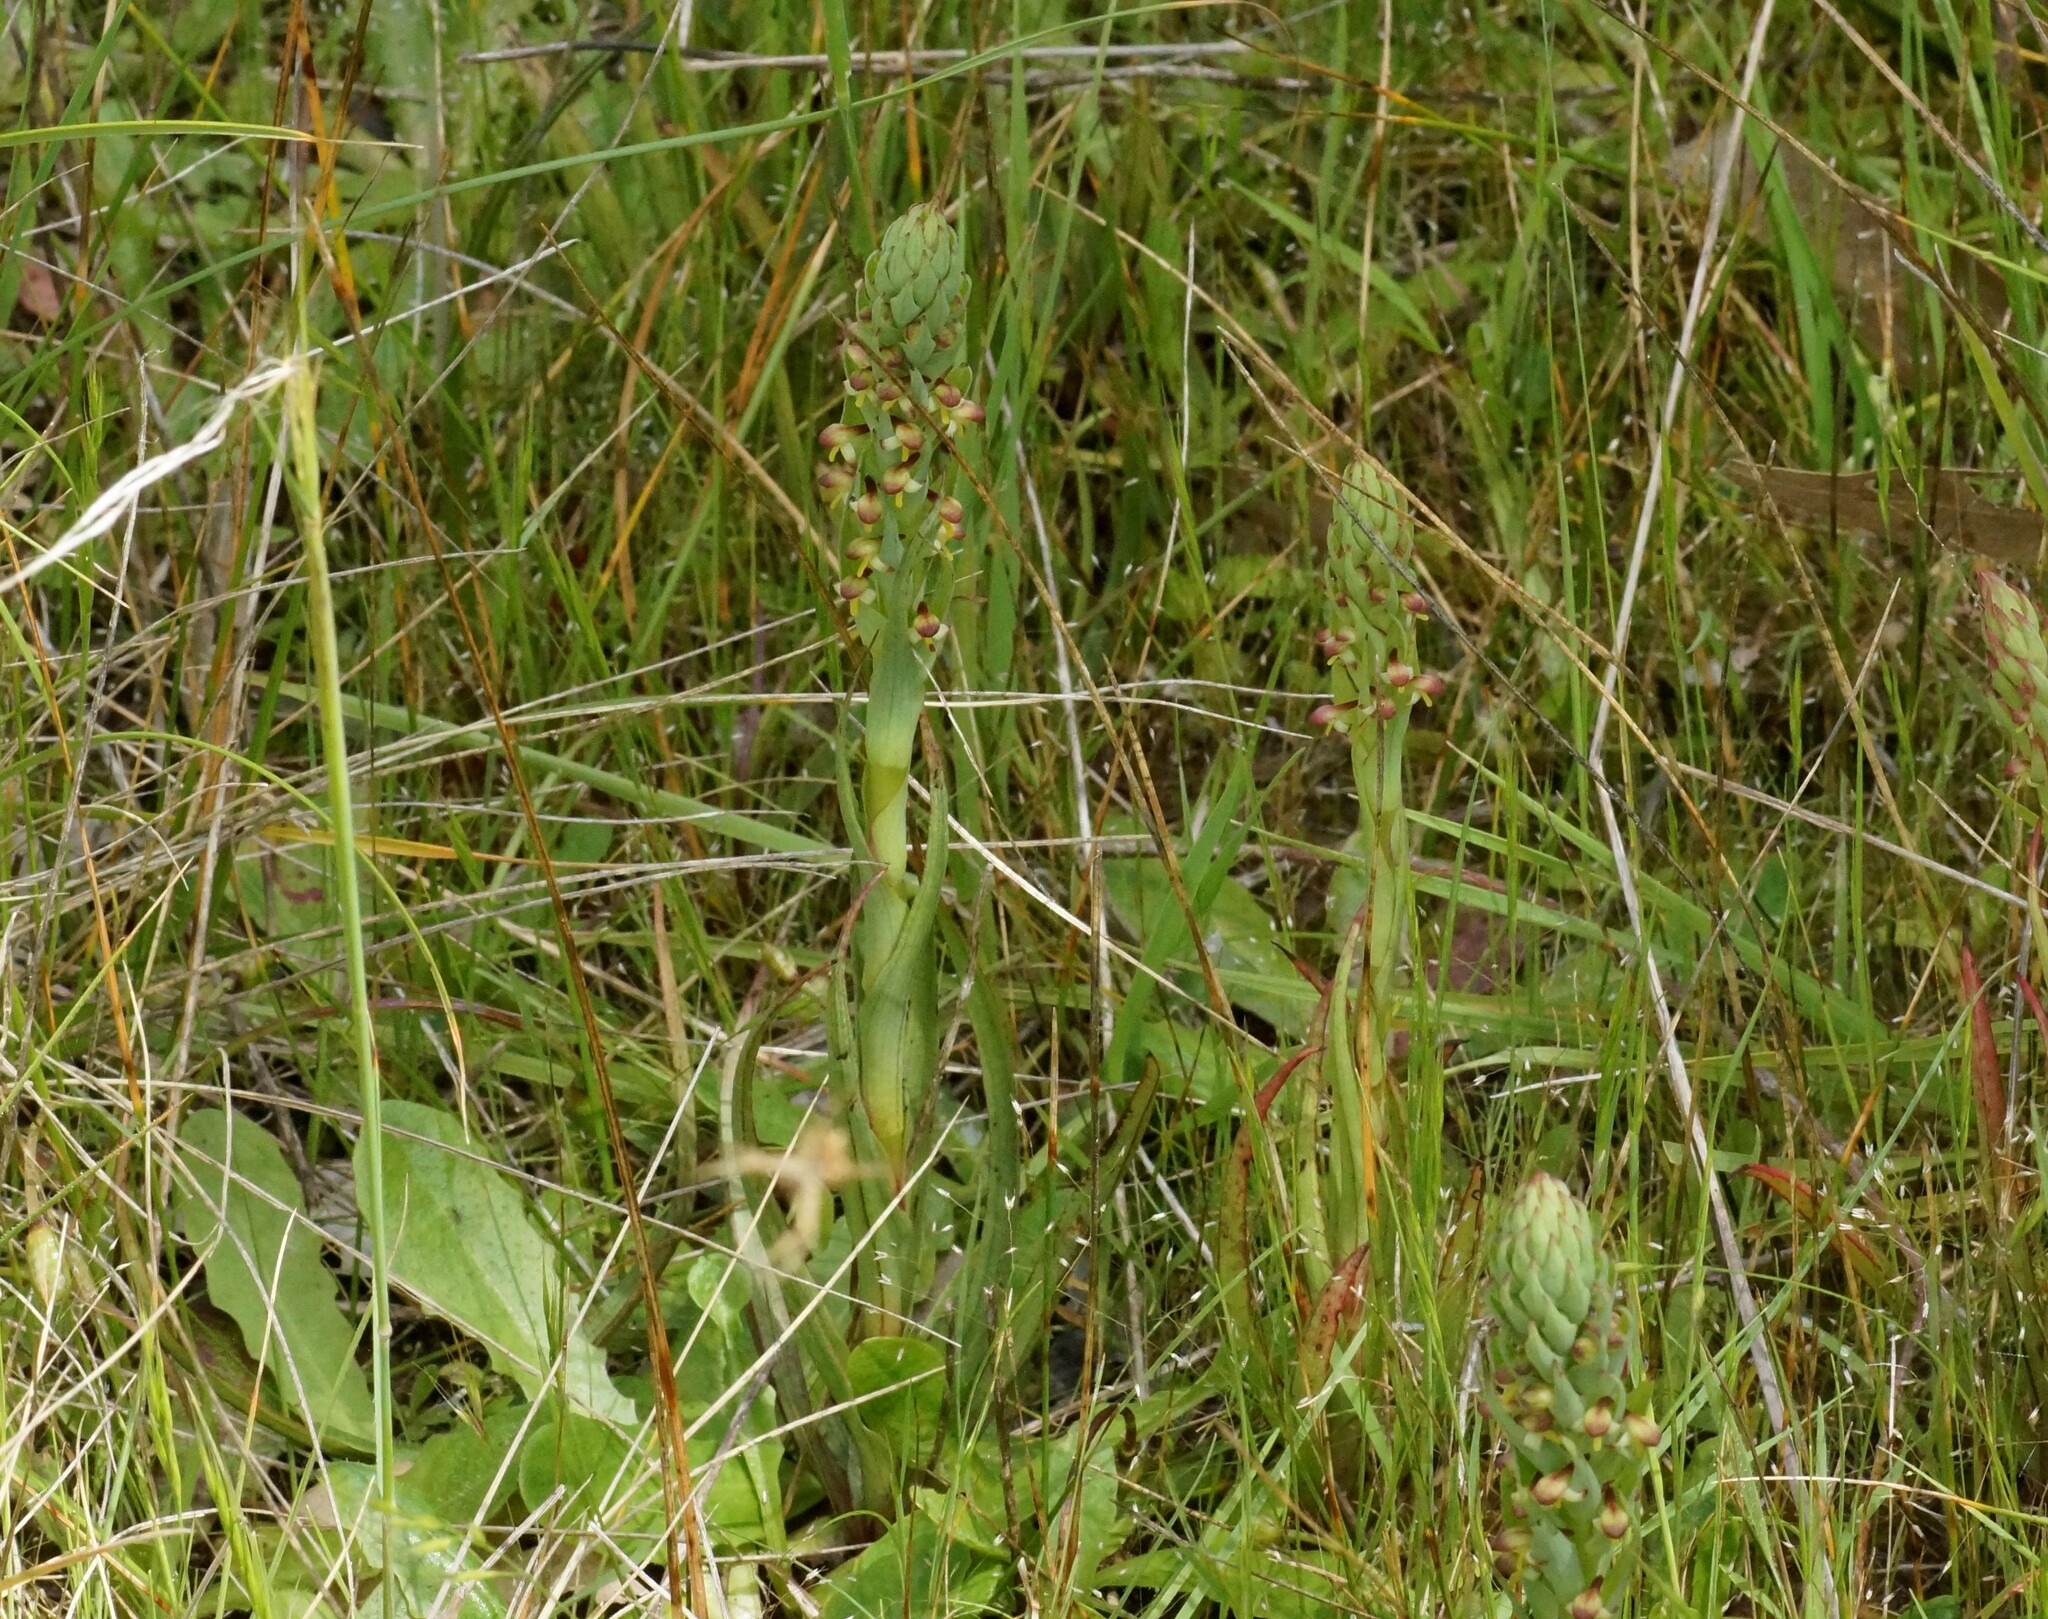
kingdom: Plantae
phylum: Tracheophyta
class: Liliopsida
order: Asparagales
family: Orchidaceae
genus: Disa
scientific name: Disa bracteata
